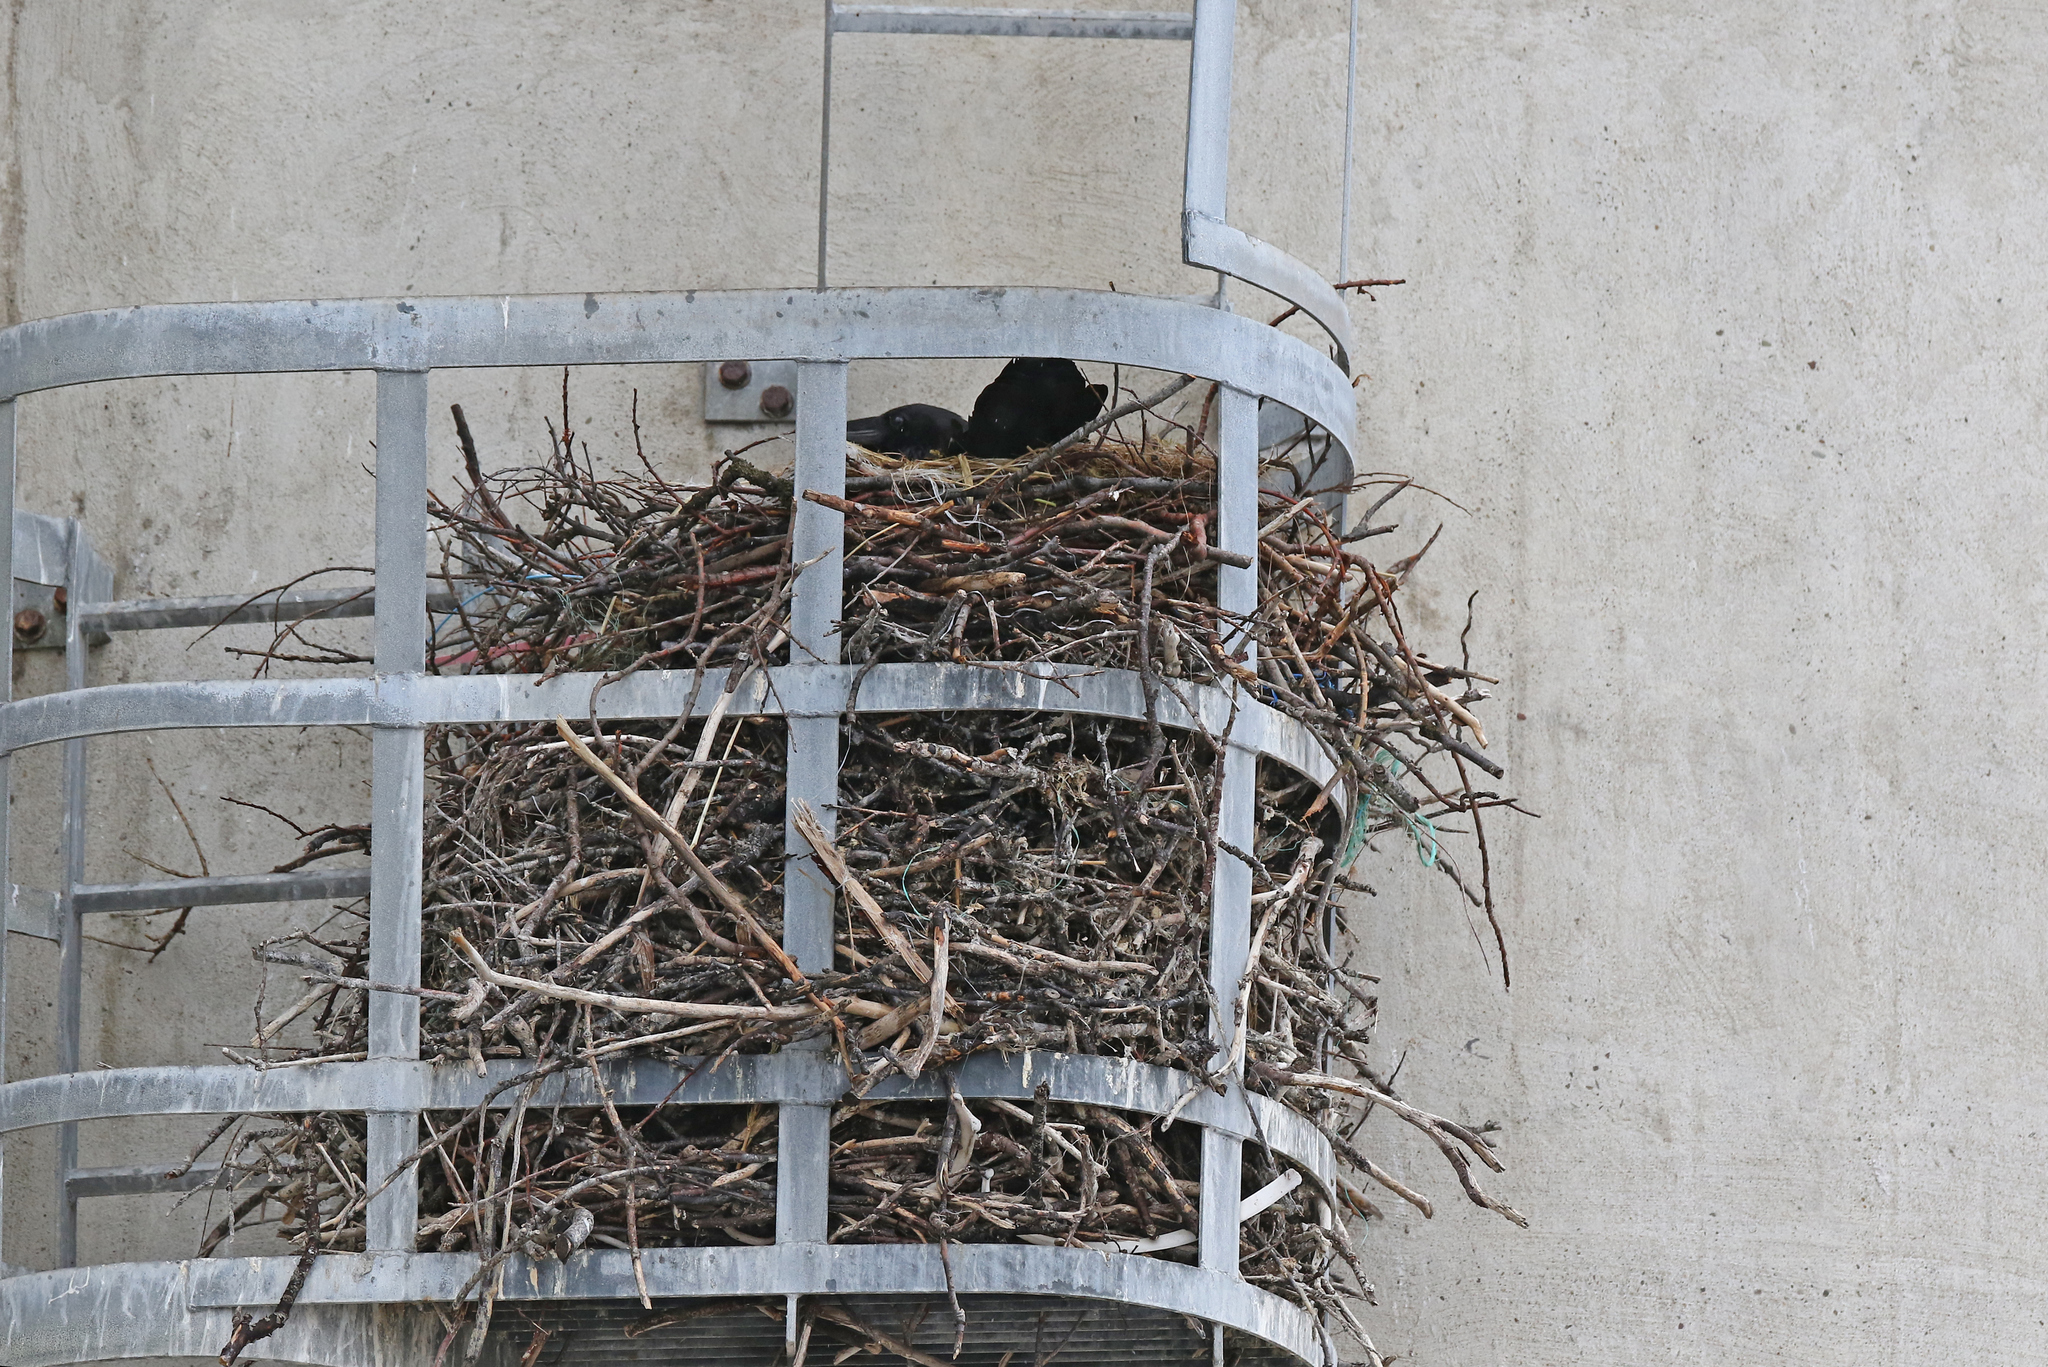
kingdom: Animalia
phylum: Chordata
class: Aves
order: Passeriformes
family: Corvidae
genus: Corvus
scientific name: Corvus corax
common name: Common raven
